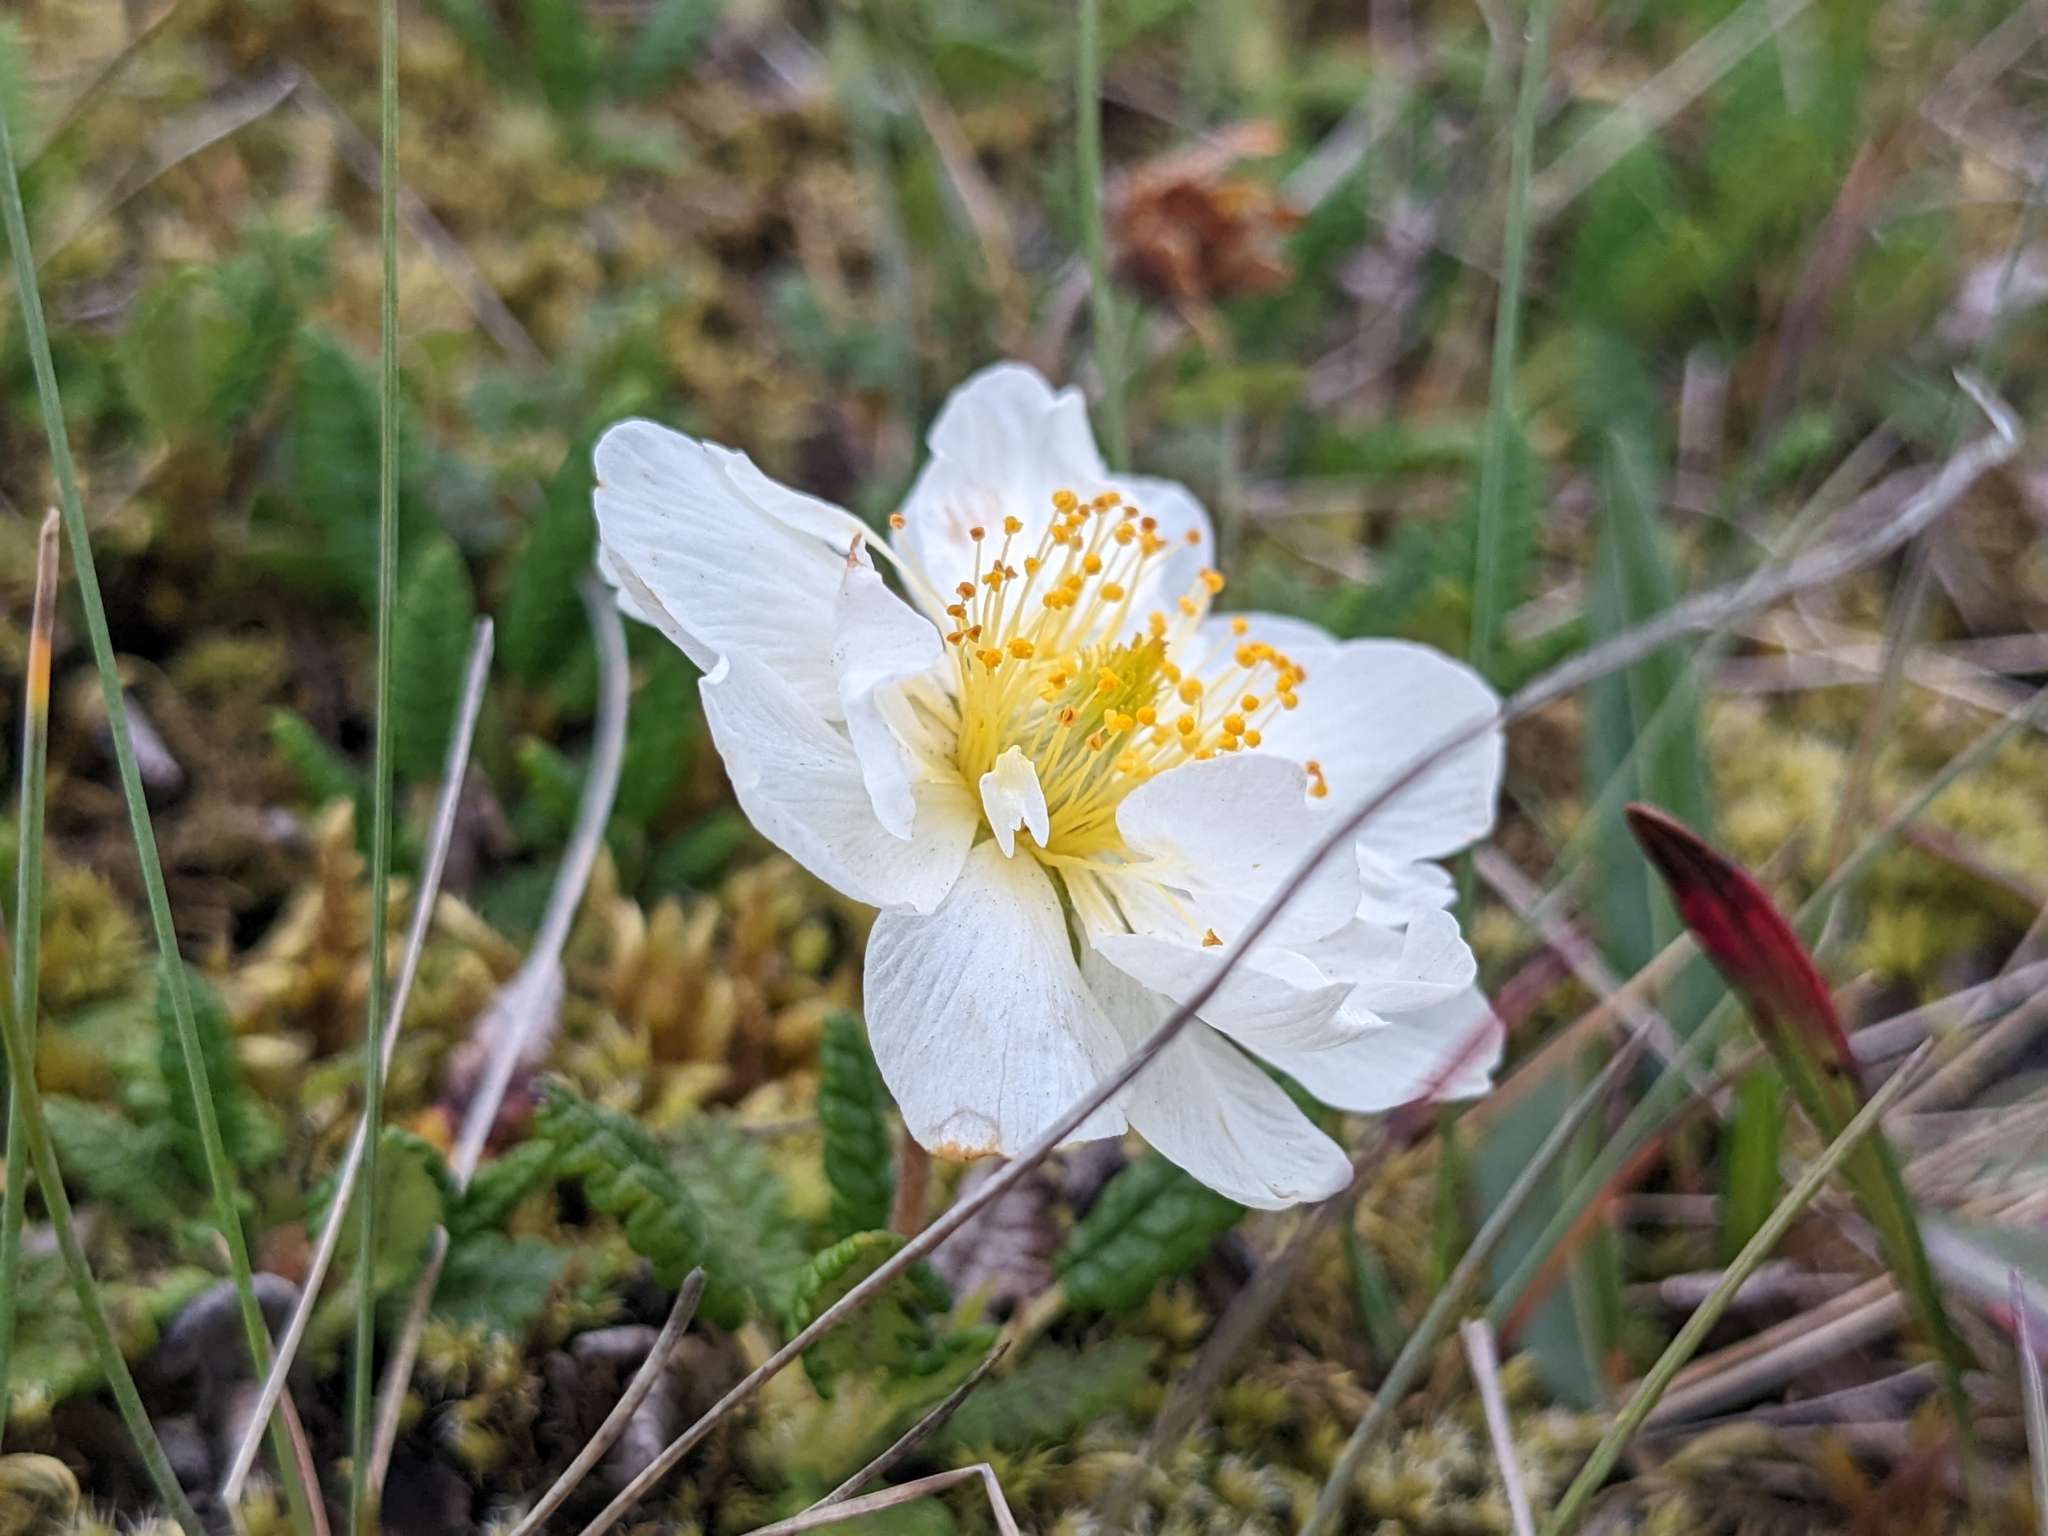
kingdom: Plantae
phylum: Tracheophyta
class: Magnoliopsida
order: Rosales
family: Rosaceae
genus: Dryas
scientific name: Dryas octopetala
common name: Eight-petal mountain-avens
